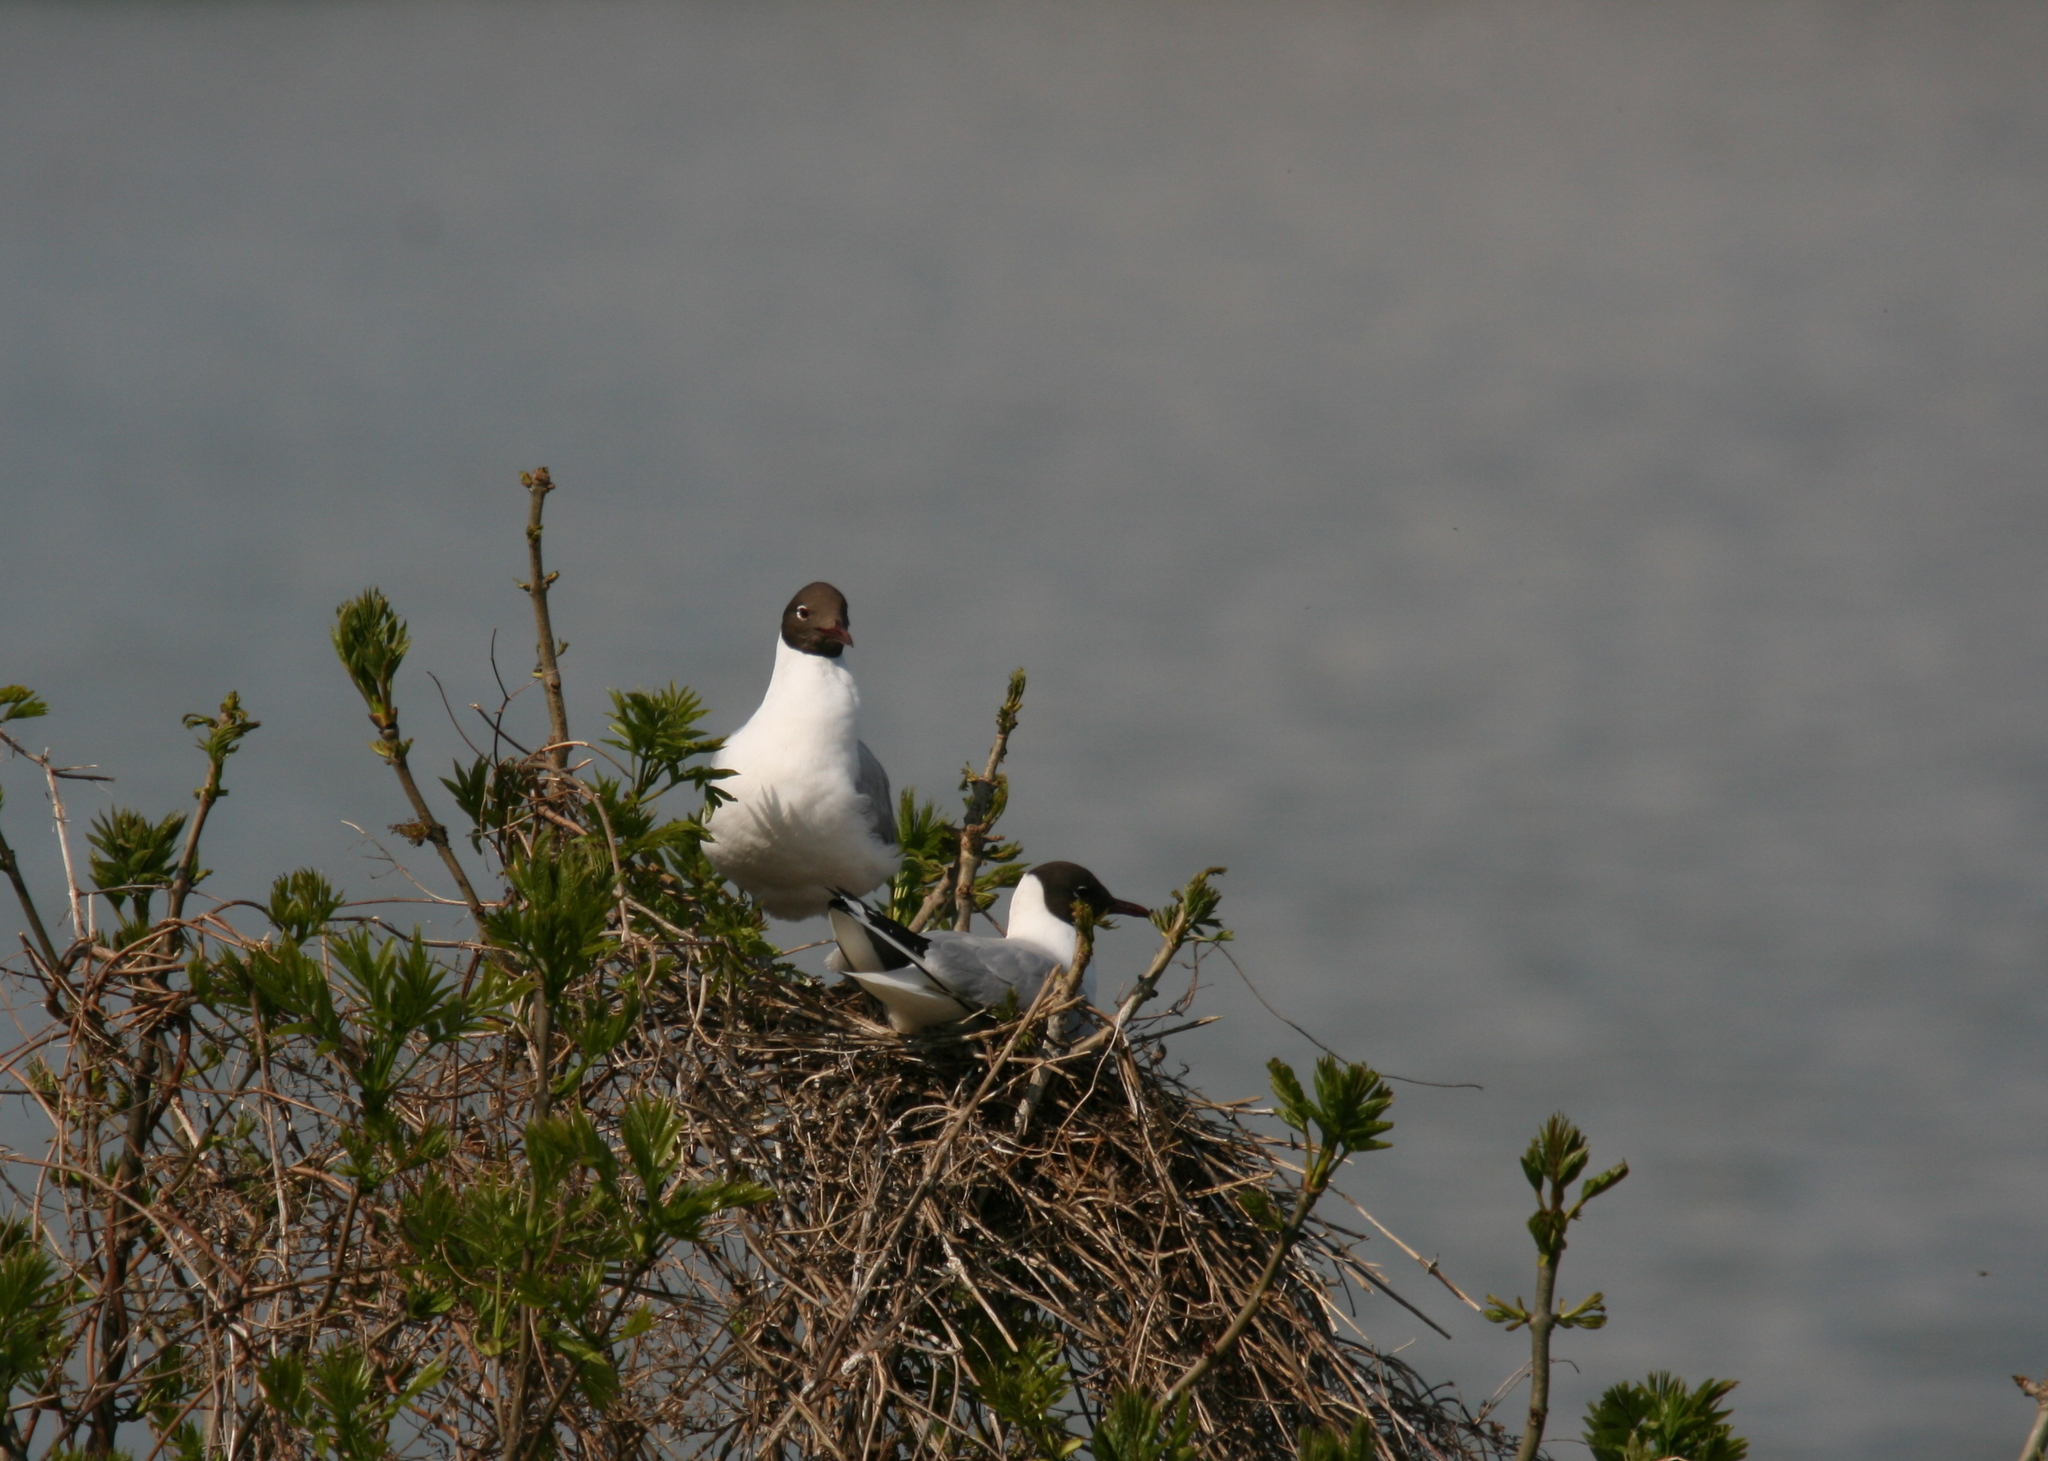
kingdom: Animalia
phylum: Chordata
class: Aves
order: Charadriiformes
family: Laridae
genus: Chroicocephalus
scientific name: Chroicocephalus ridibundus
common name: Black-headed gull
